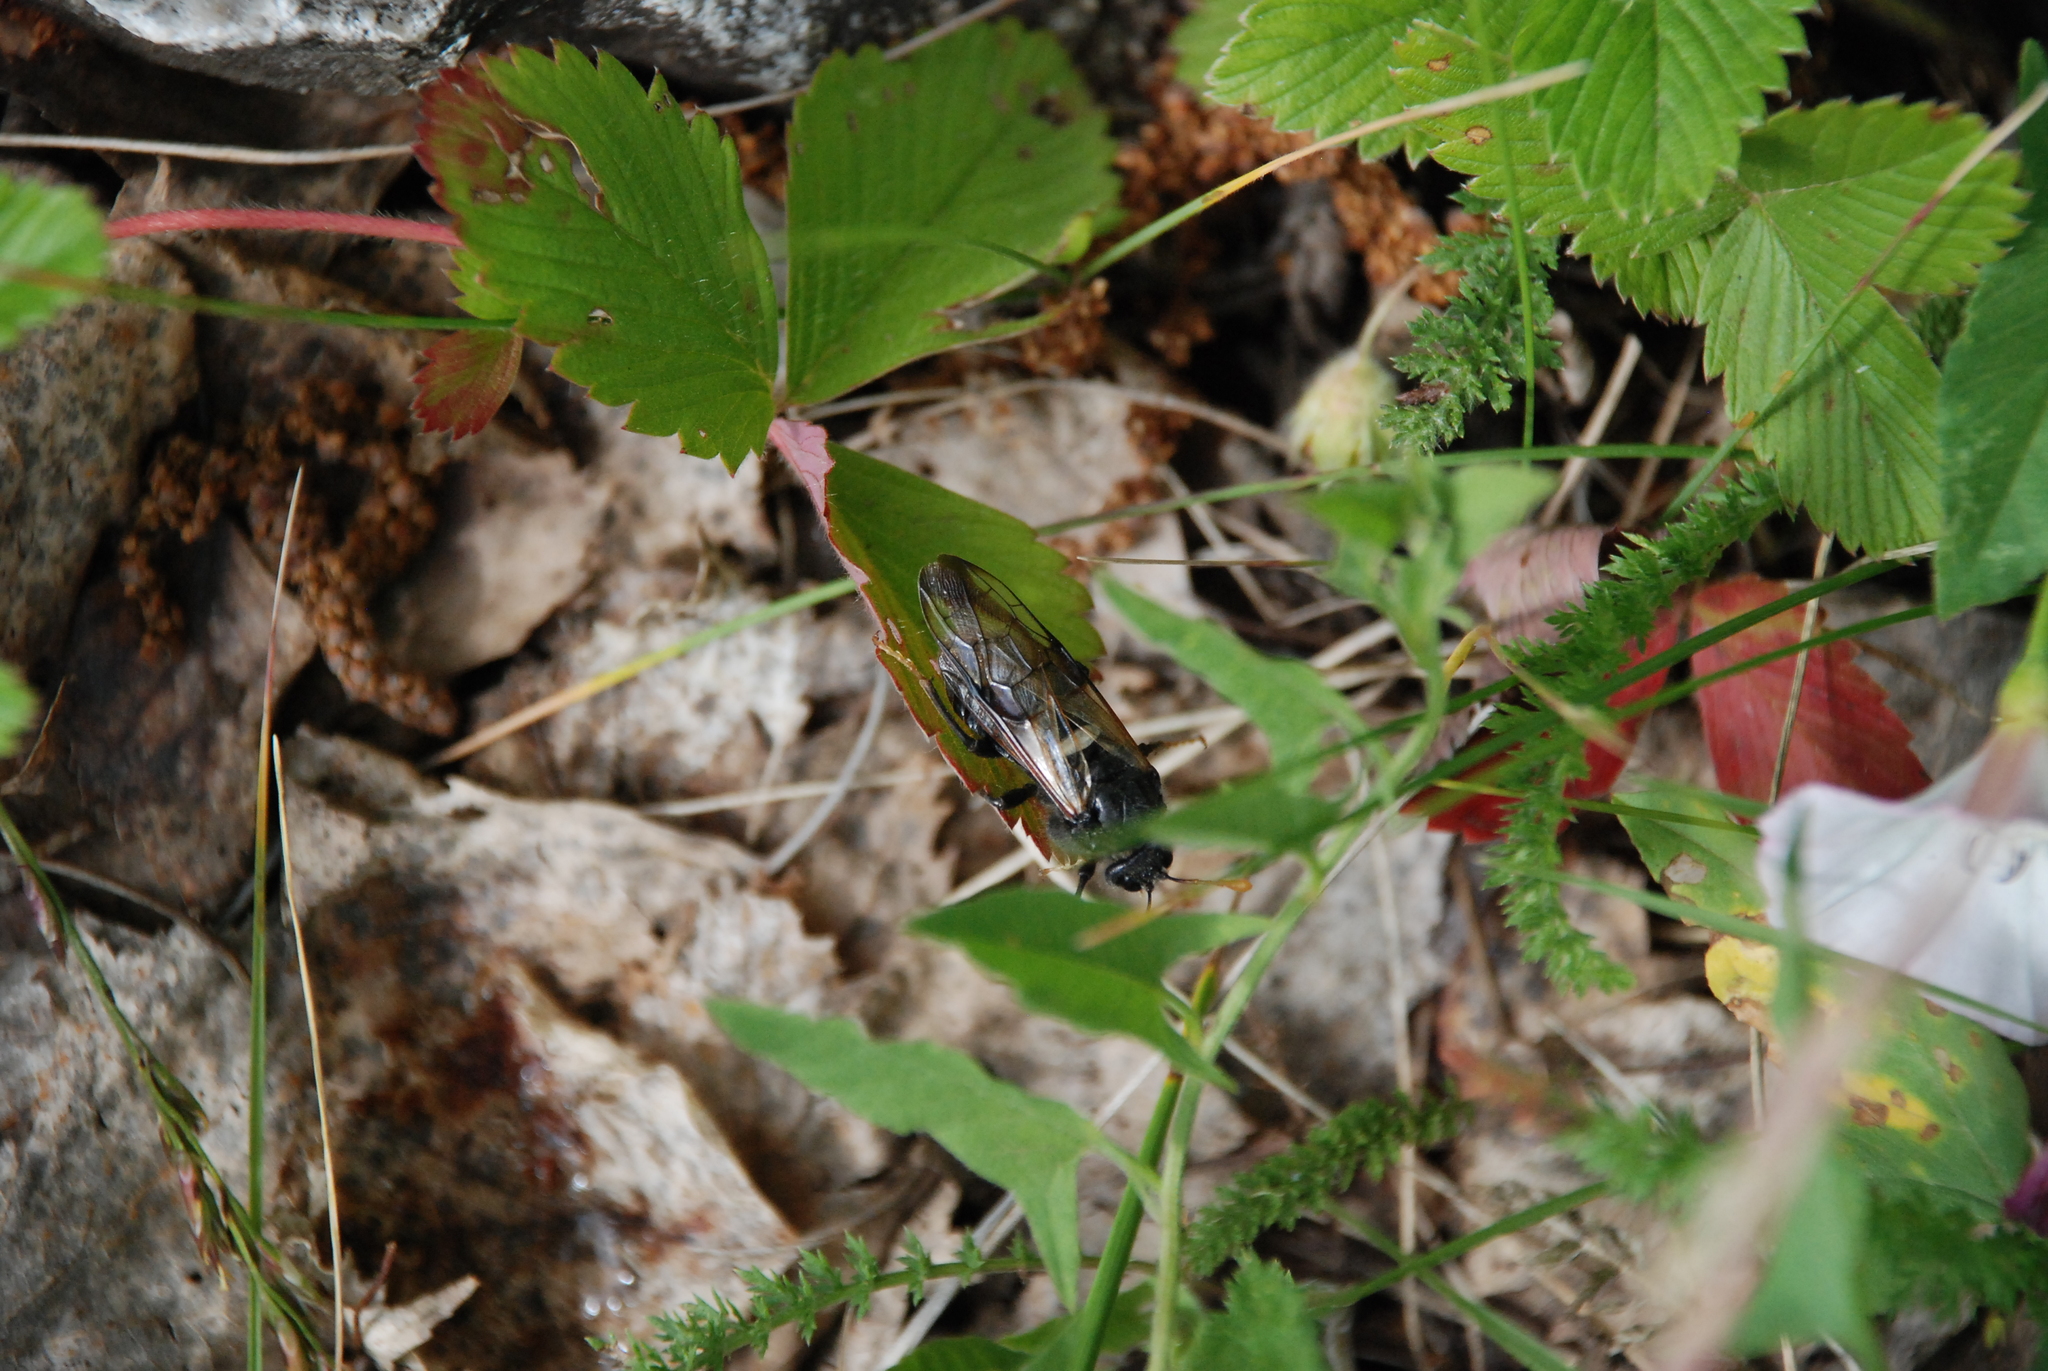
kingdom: Animalia
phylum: Arthropoda
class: Insecta
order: Hymenoptera
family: Cimbicidae
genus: Cimbex
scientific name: Cimbex femoratus
